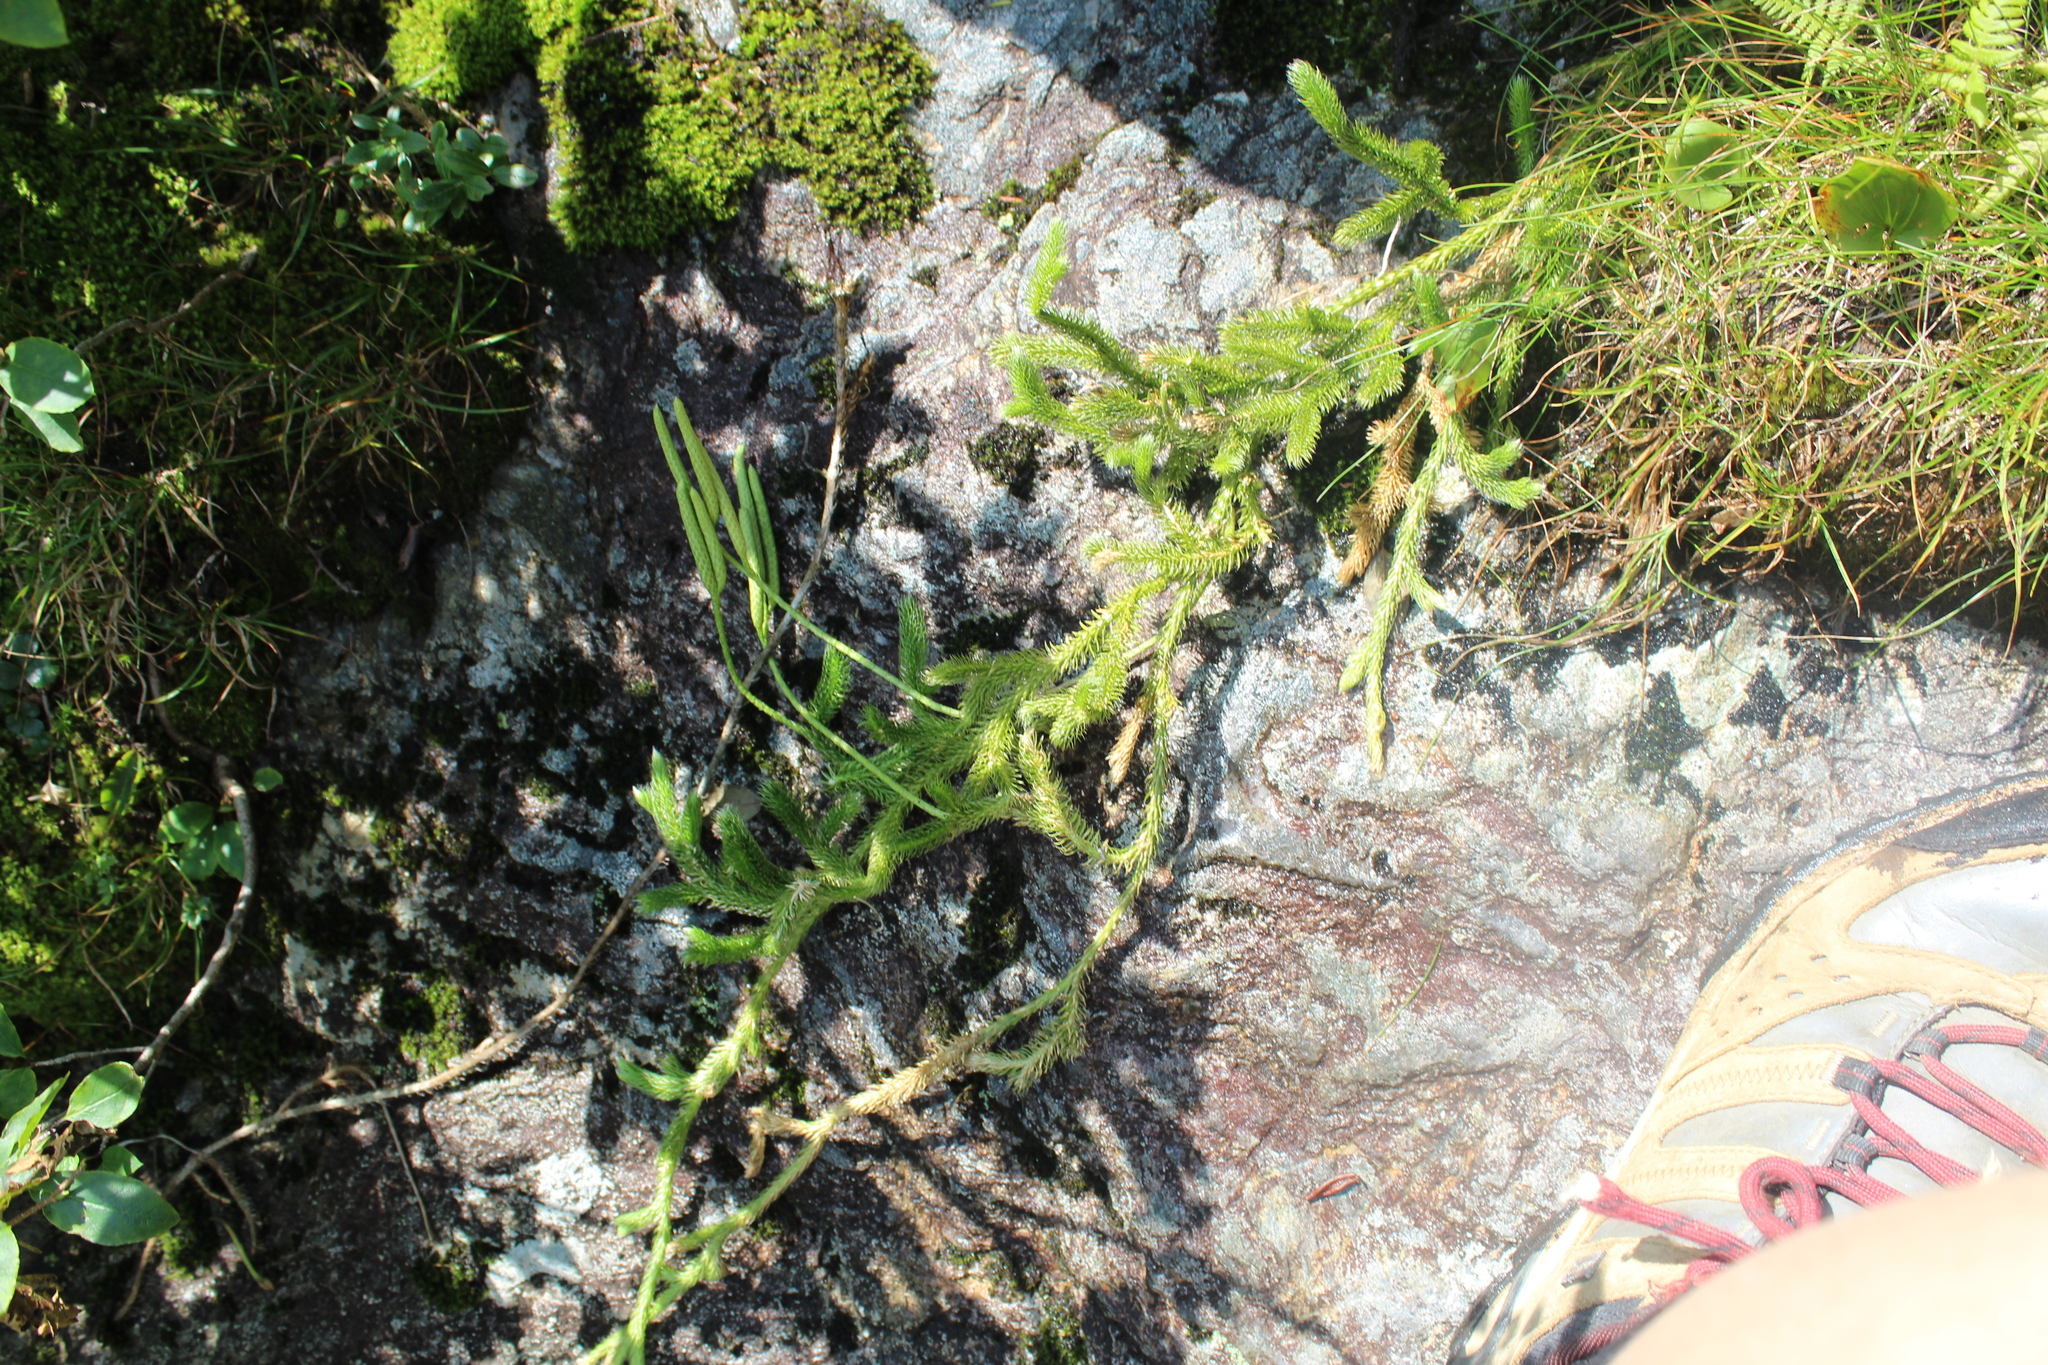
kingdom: Plantae
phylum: Tracheophyta
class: Lycopodiopsida
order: Lycopodiales
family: Lycopodiaceae
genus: Lycopodium
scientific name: Lycopodium clavatum
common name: Stag's-horn clubmoss
